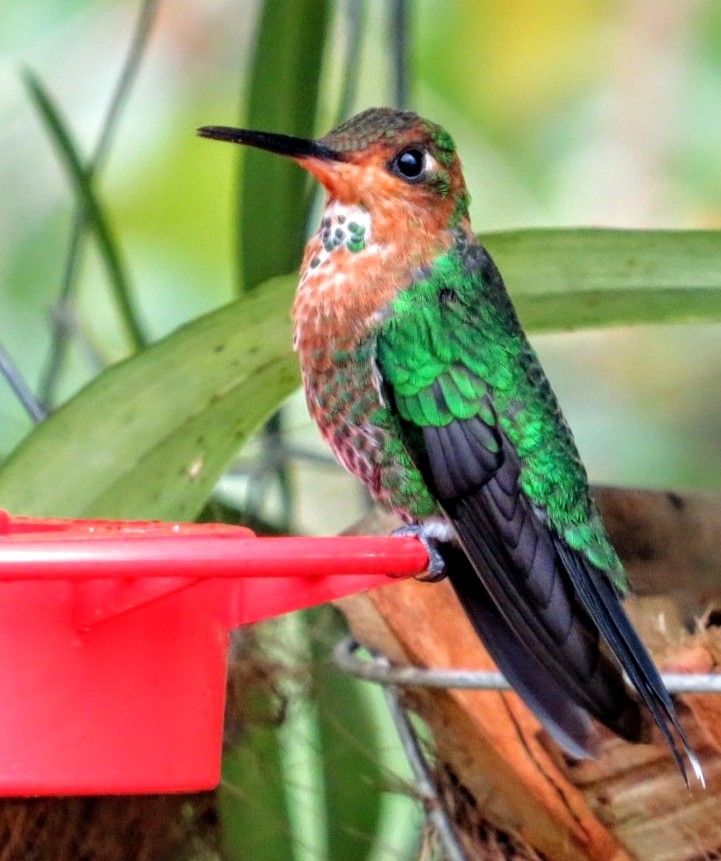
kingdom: Animalia
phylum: Chordata
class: Aves
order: Apodiformes
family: Trochilidae
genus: Heliodoxa
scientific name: Heliodoxa jacula
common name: Green-crowned brilliant
